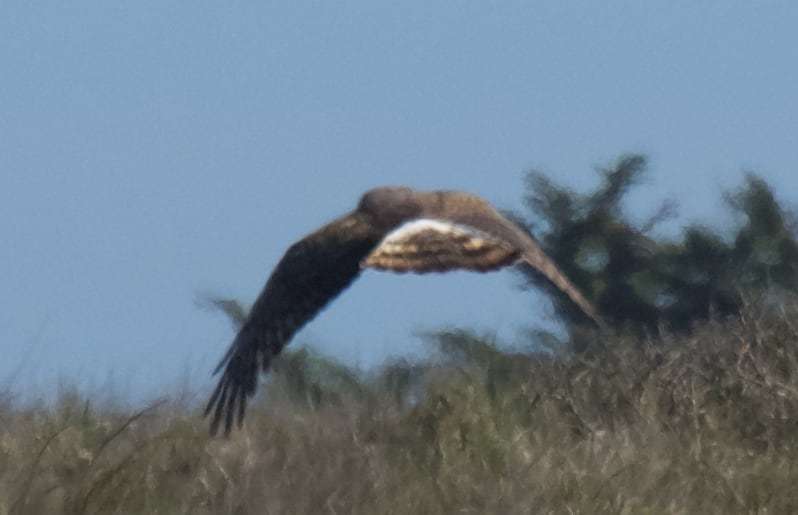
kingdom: Animalia
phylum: Chordata
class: Aves
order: Accipitriformes
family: Accipitridae
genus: Circus
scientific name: Circus cyaneus
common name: Hen harrier
